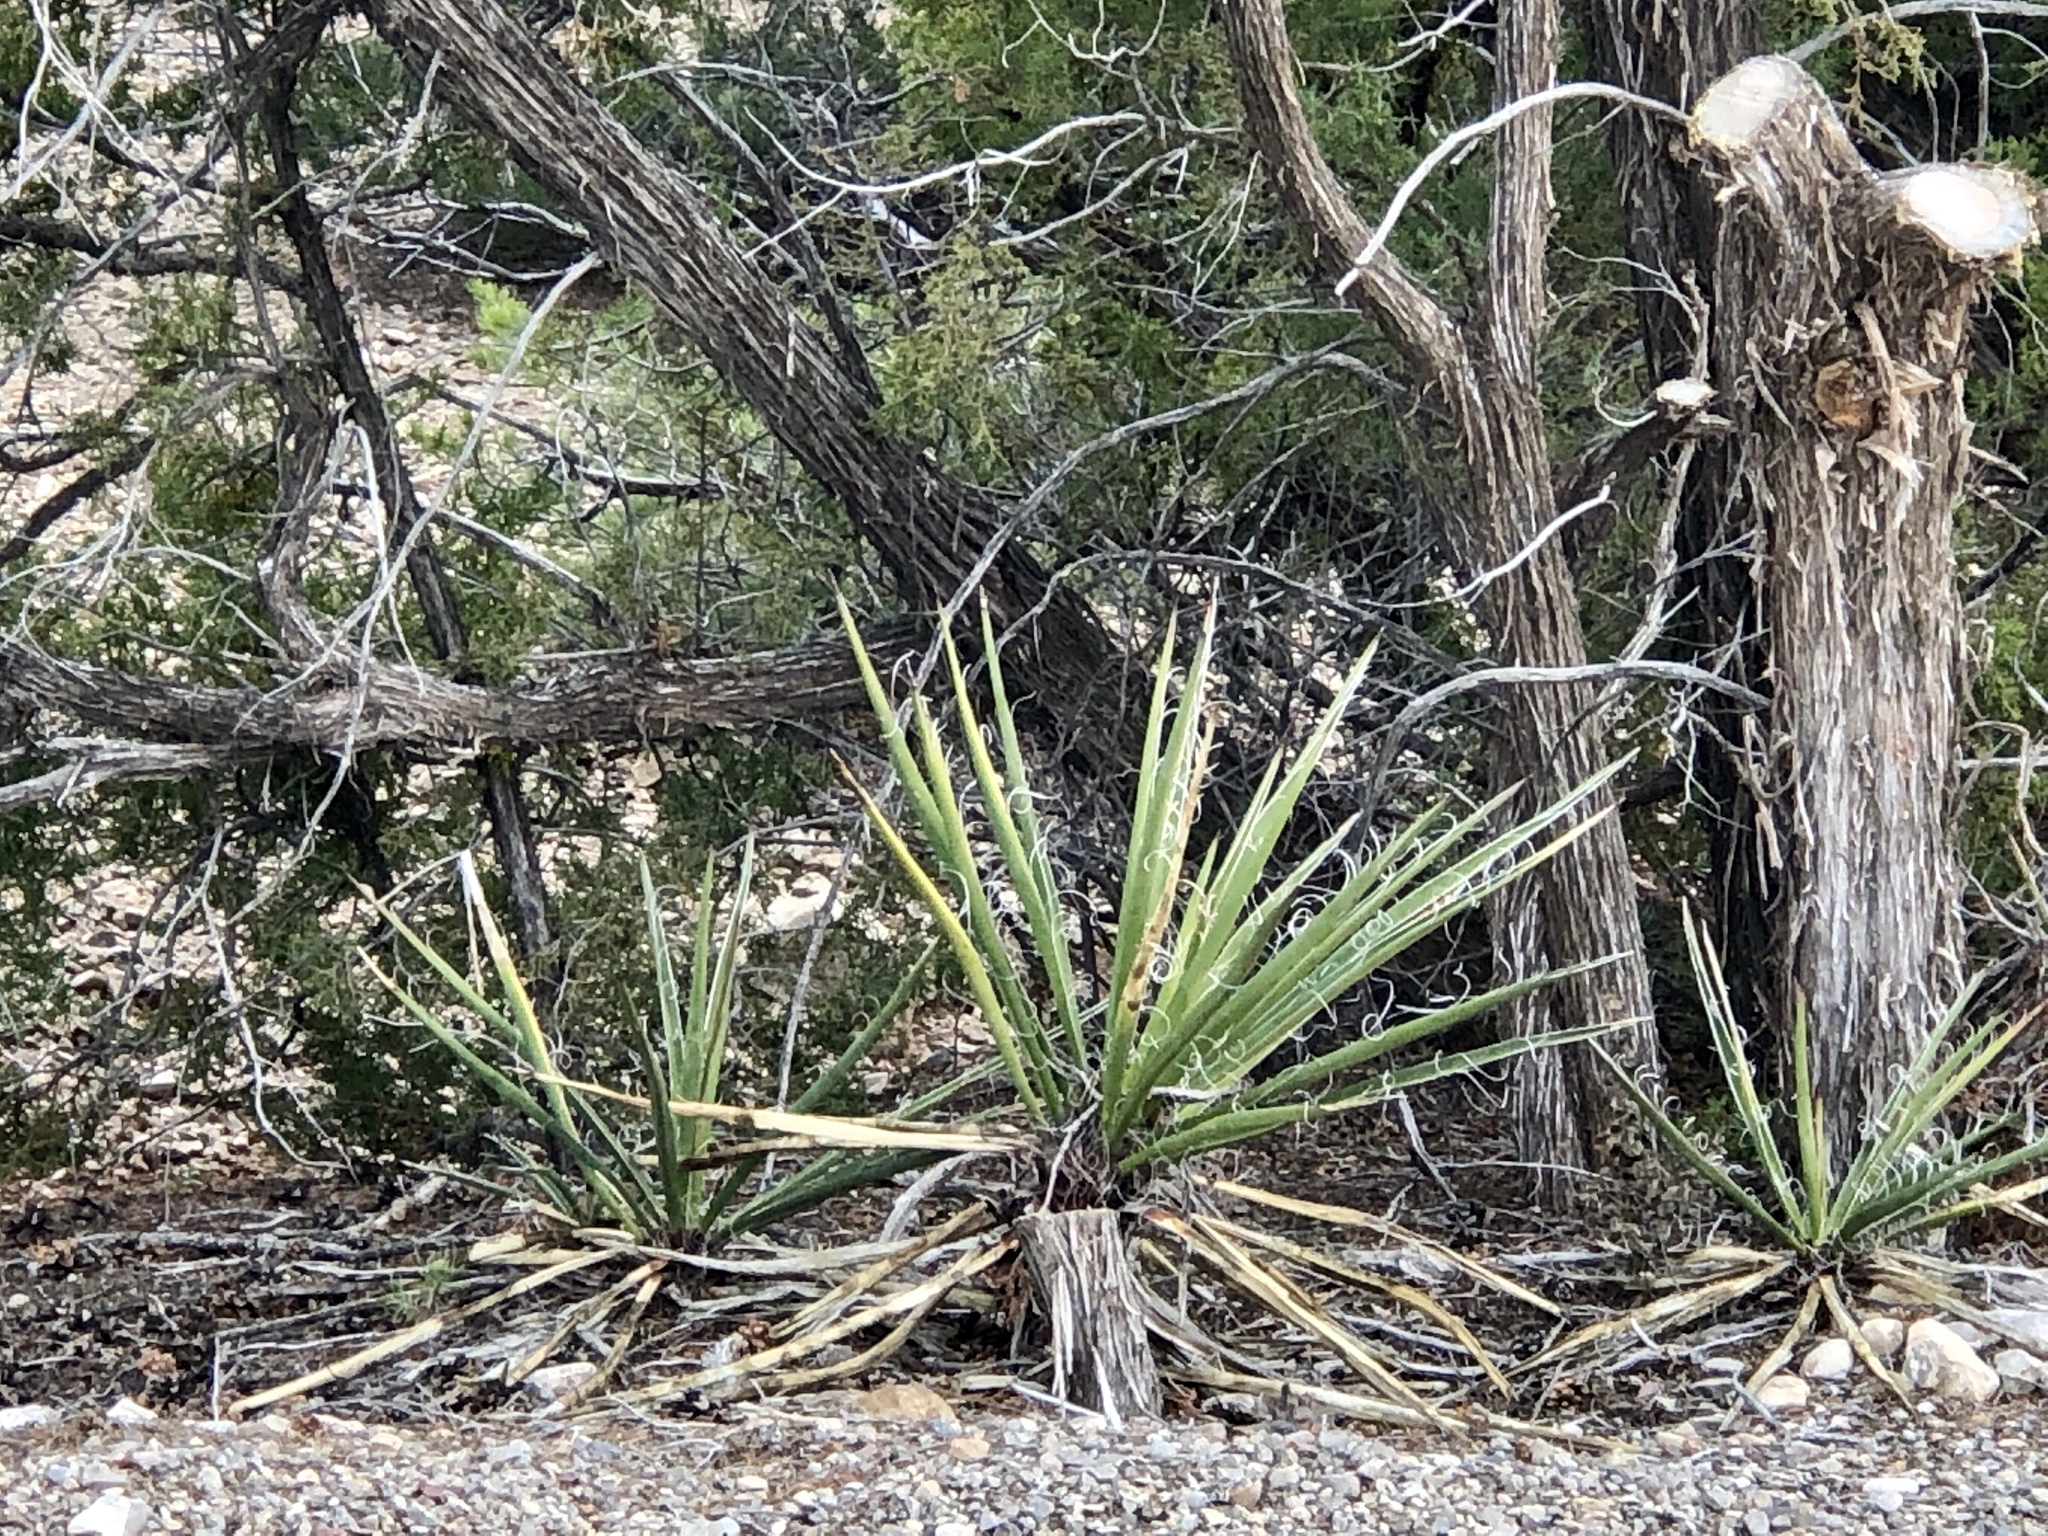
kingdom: Plantae
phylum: Tracheophyta
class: Liliopsida
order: Asparagales
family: Asparagaceae
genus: Yucca
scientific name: Yucca baccata
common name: Banana yucca
